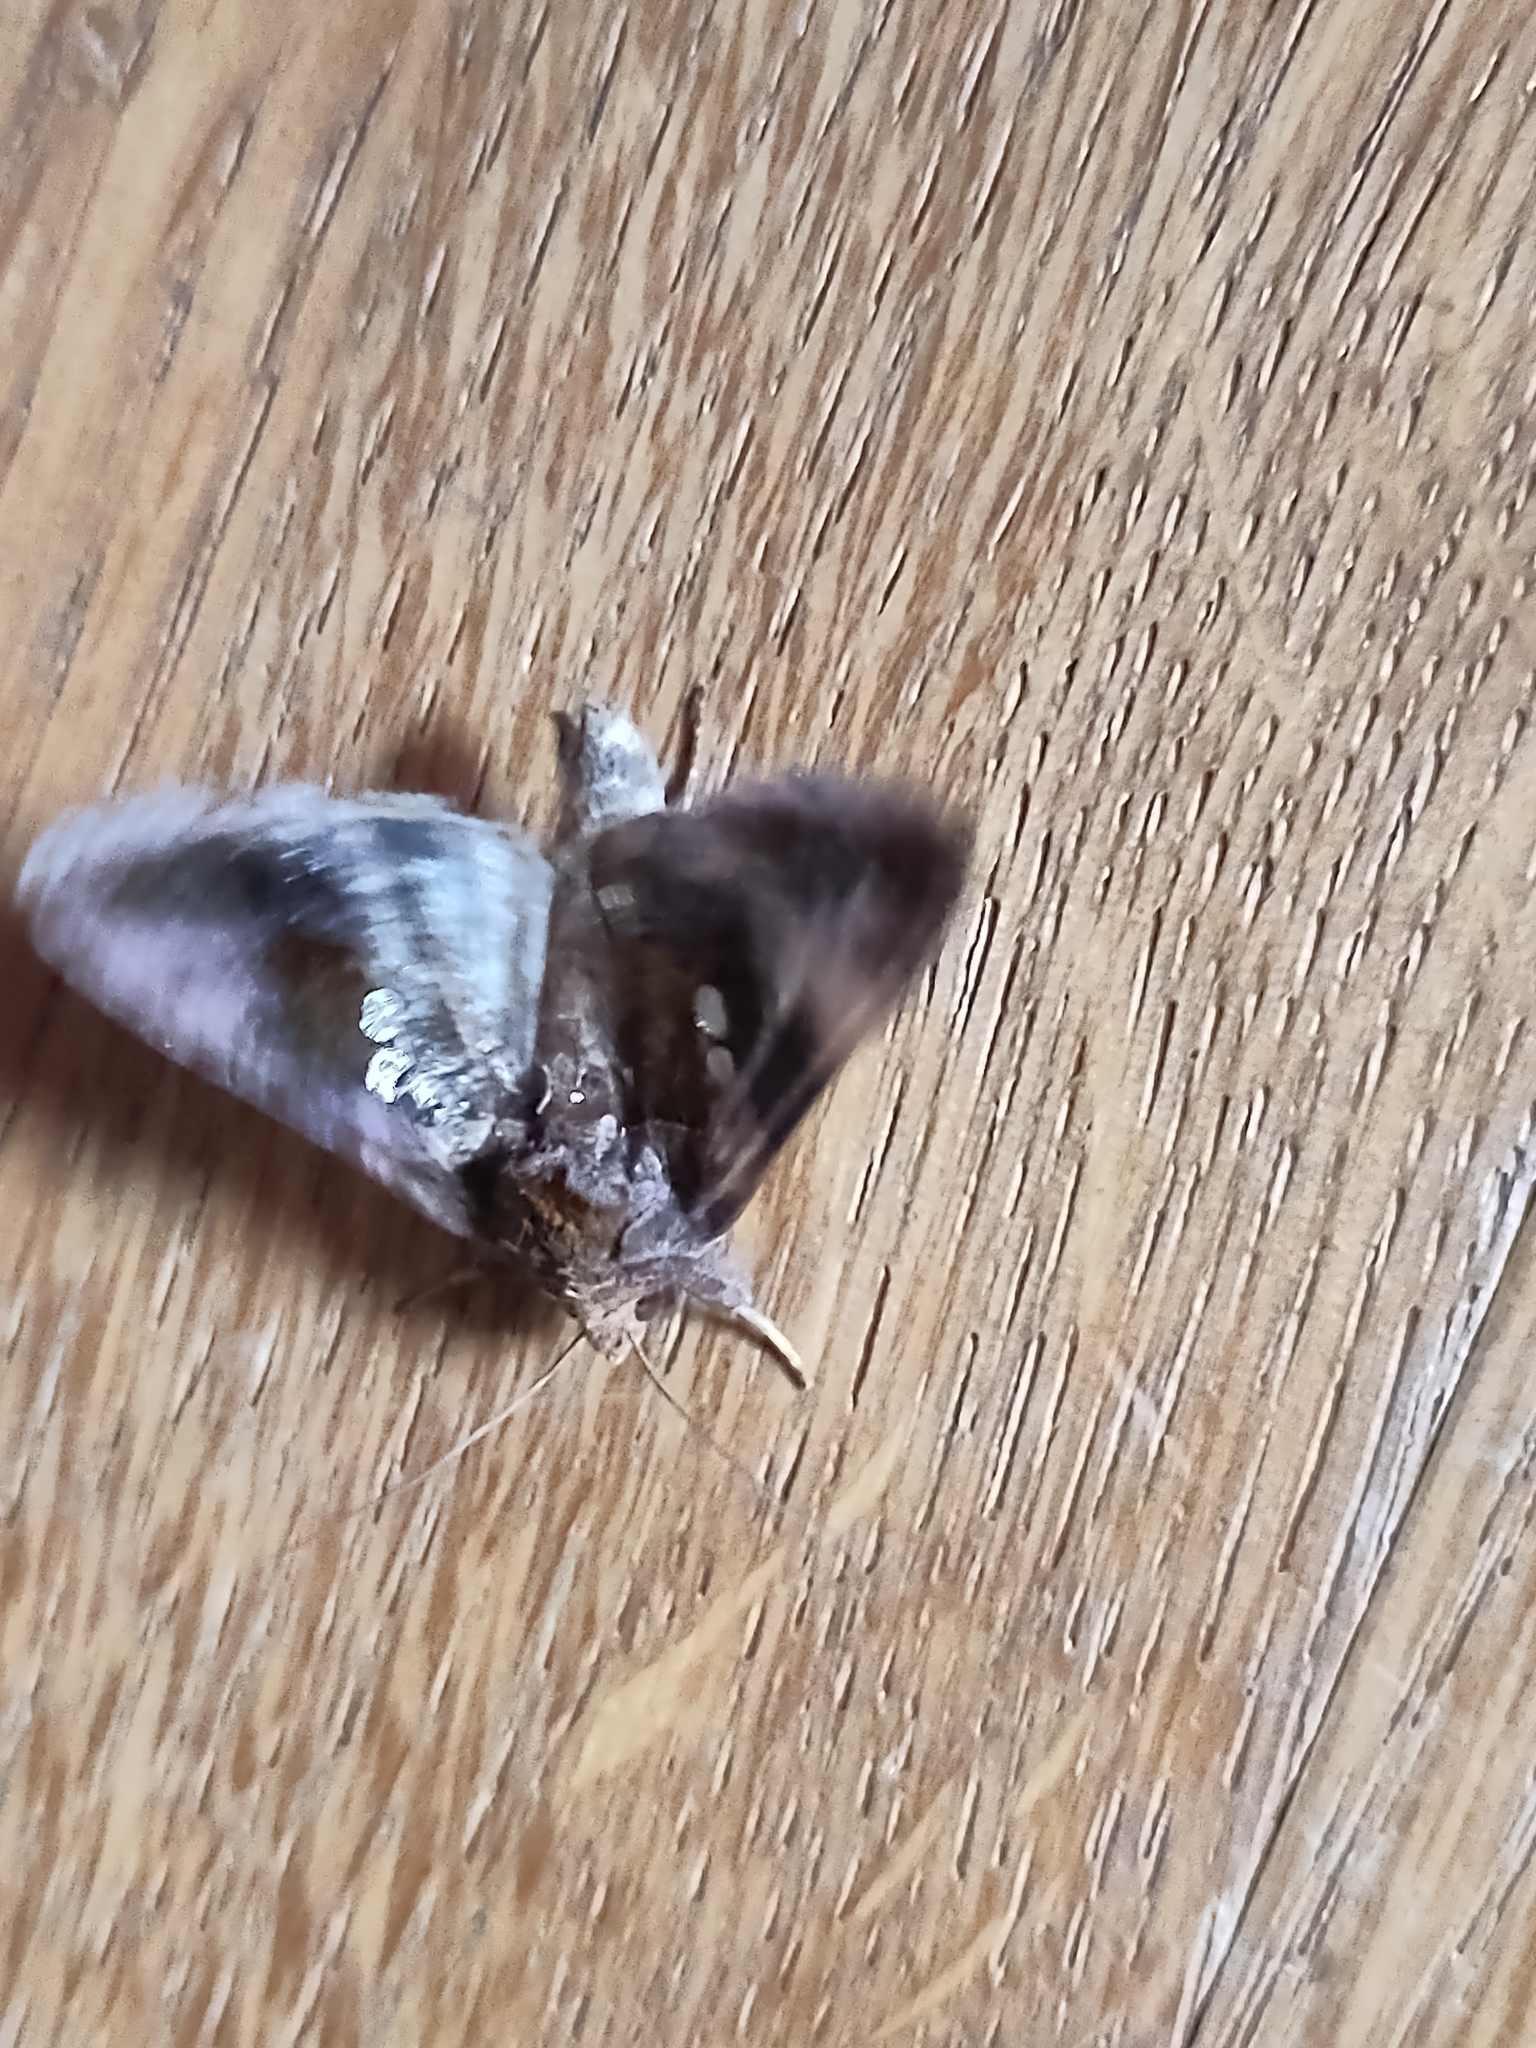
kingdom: Animalia
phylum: Arthropoda
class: Insecta
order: Lepidoptera
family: Noctuidae
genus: Chrysodeixis
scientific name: Chrysodeixis chalcites
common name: Golden twin-spot
